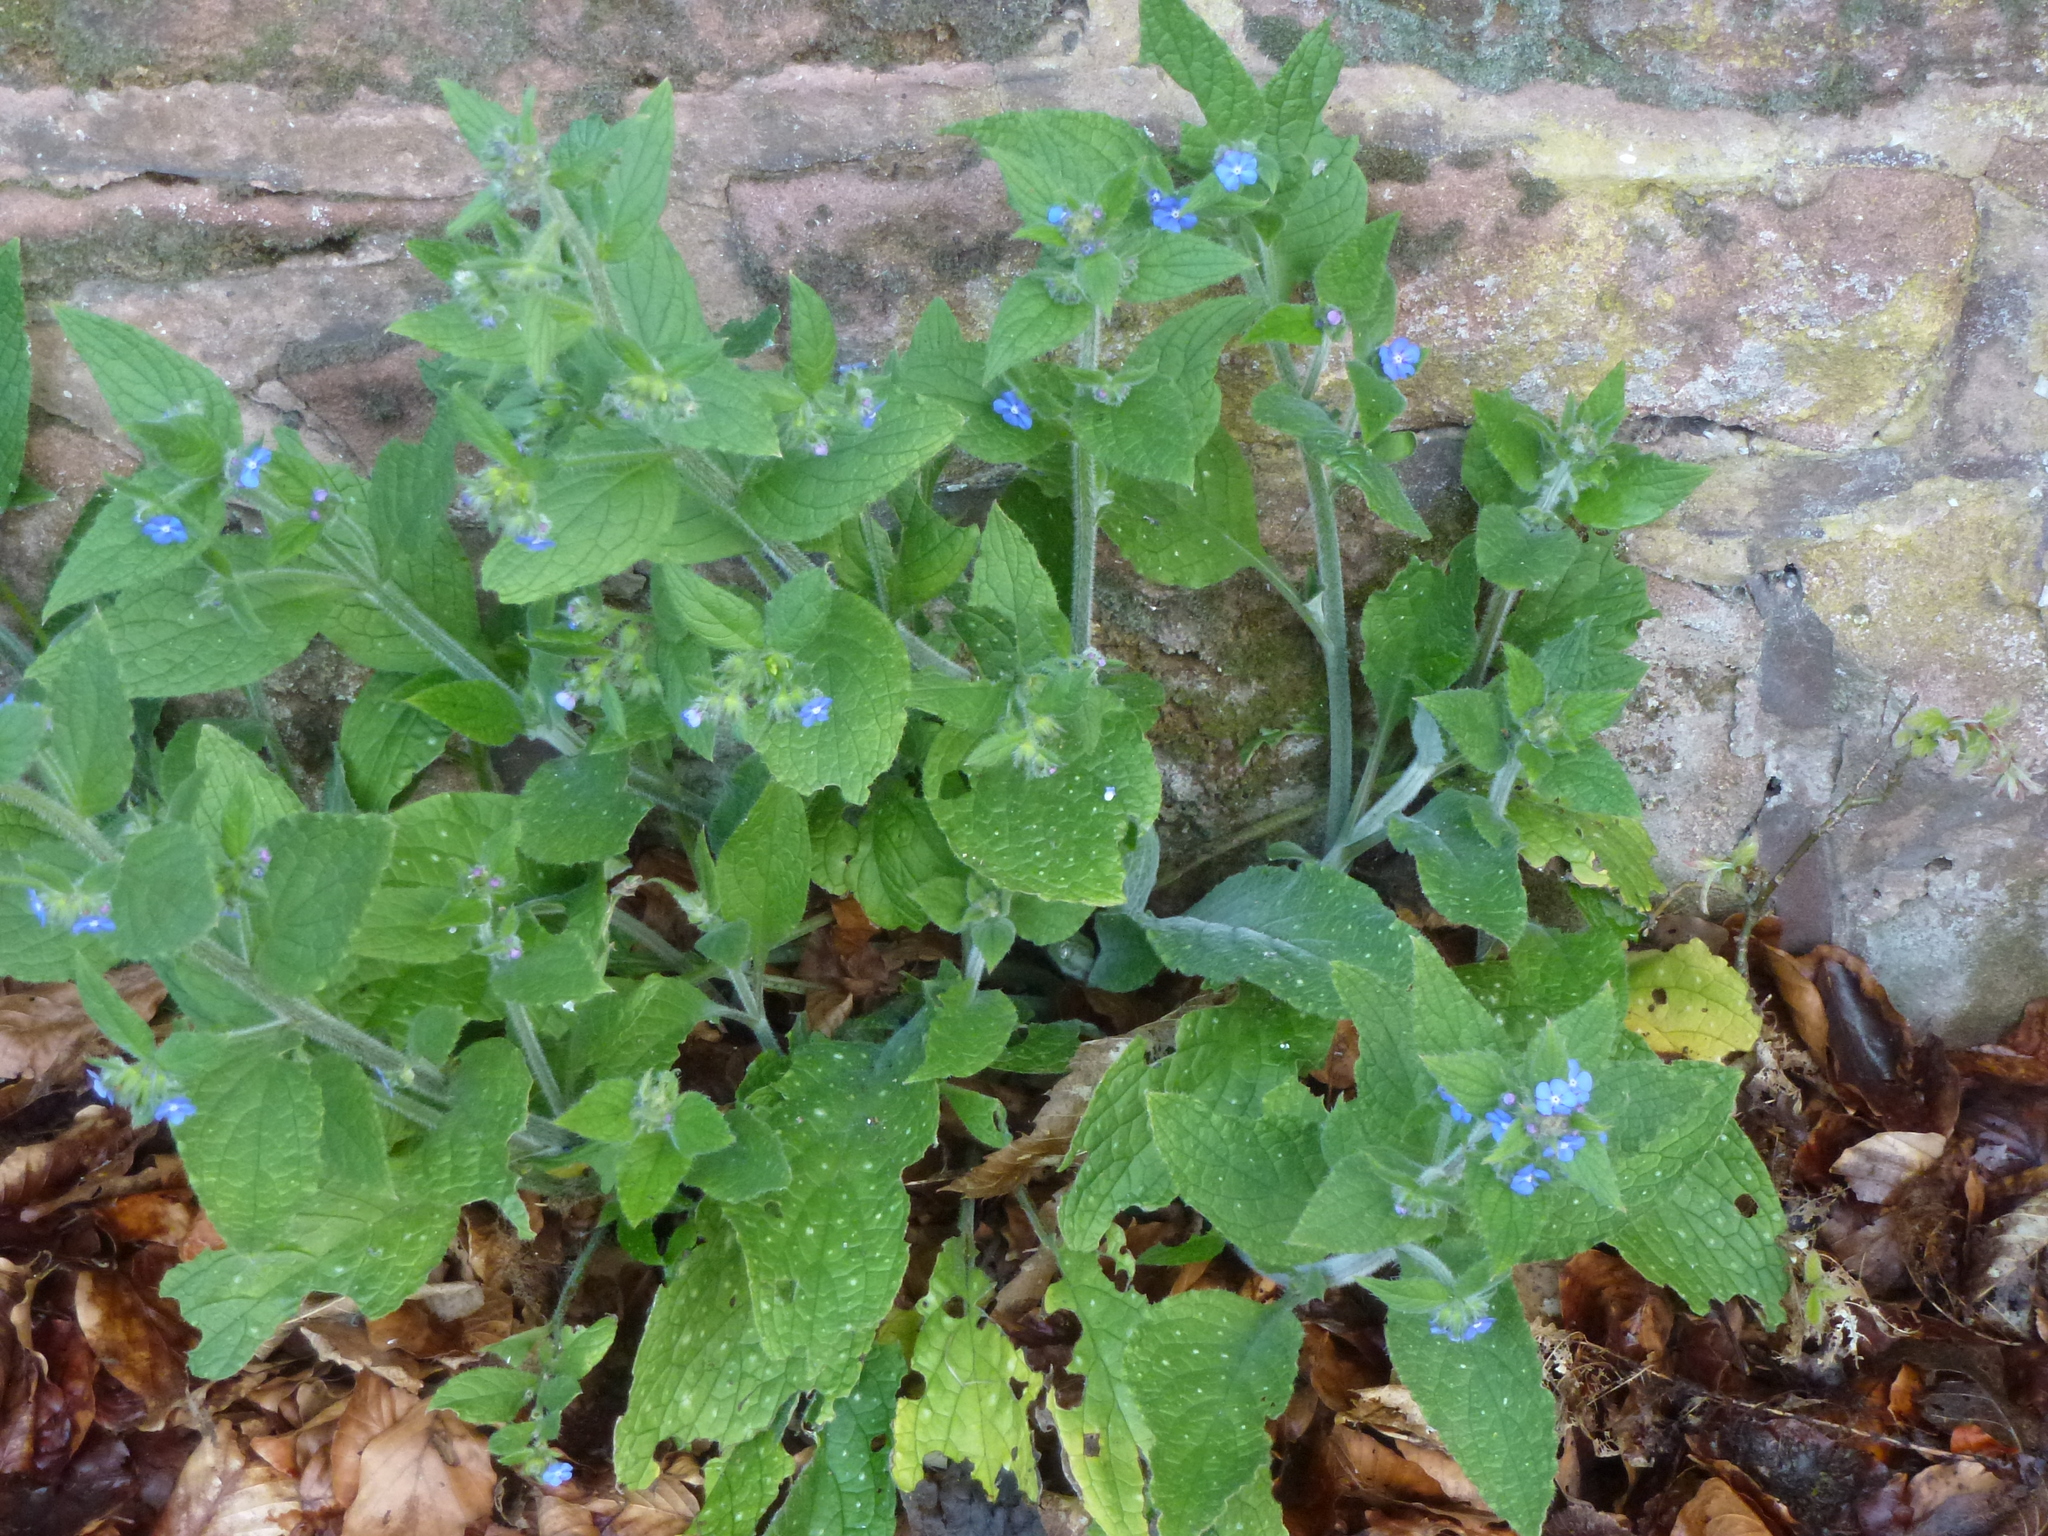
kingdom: Plantae
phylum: Tracheophyta
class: Magnoliopsida
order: Boraginales
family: Boraginaceae
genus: Pentaglottis
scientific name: Pentaglottis sempervirens
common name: Green alkanet
